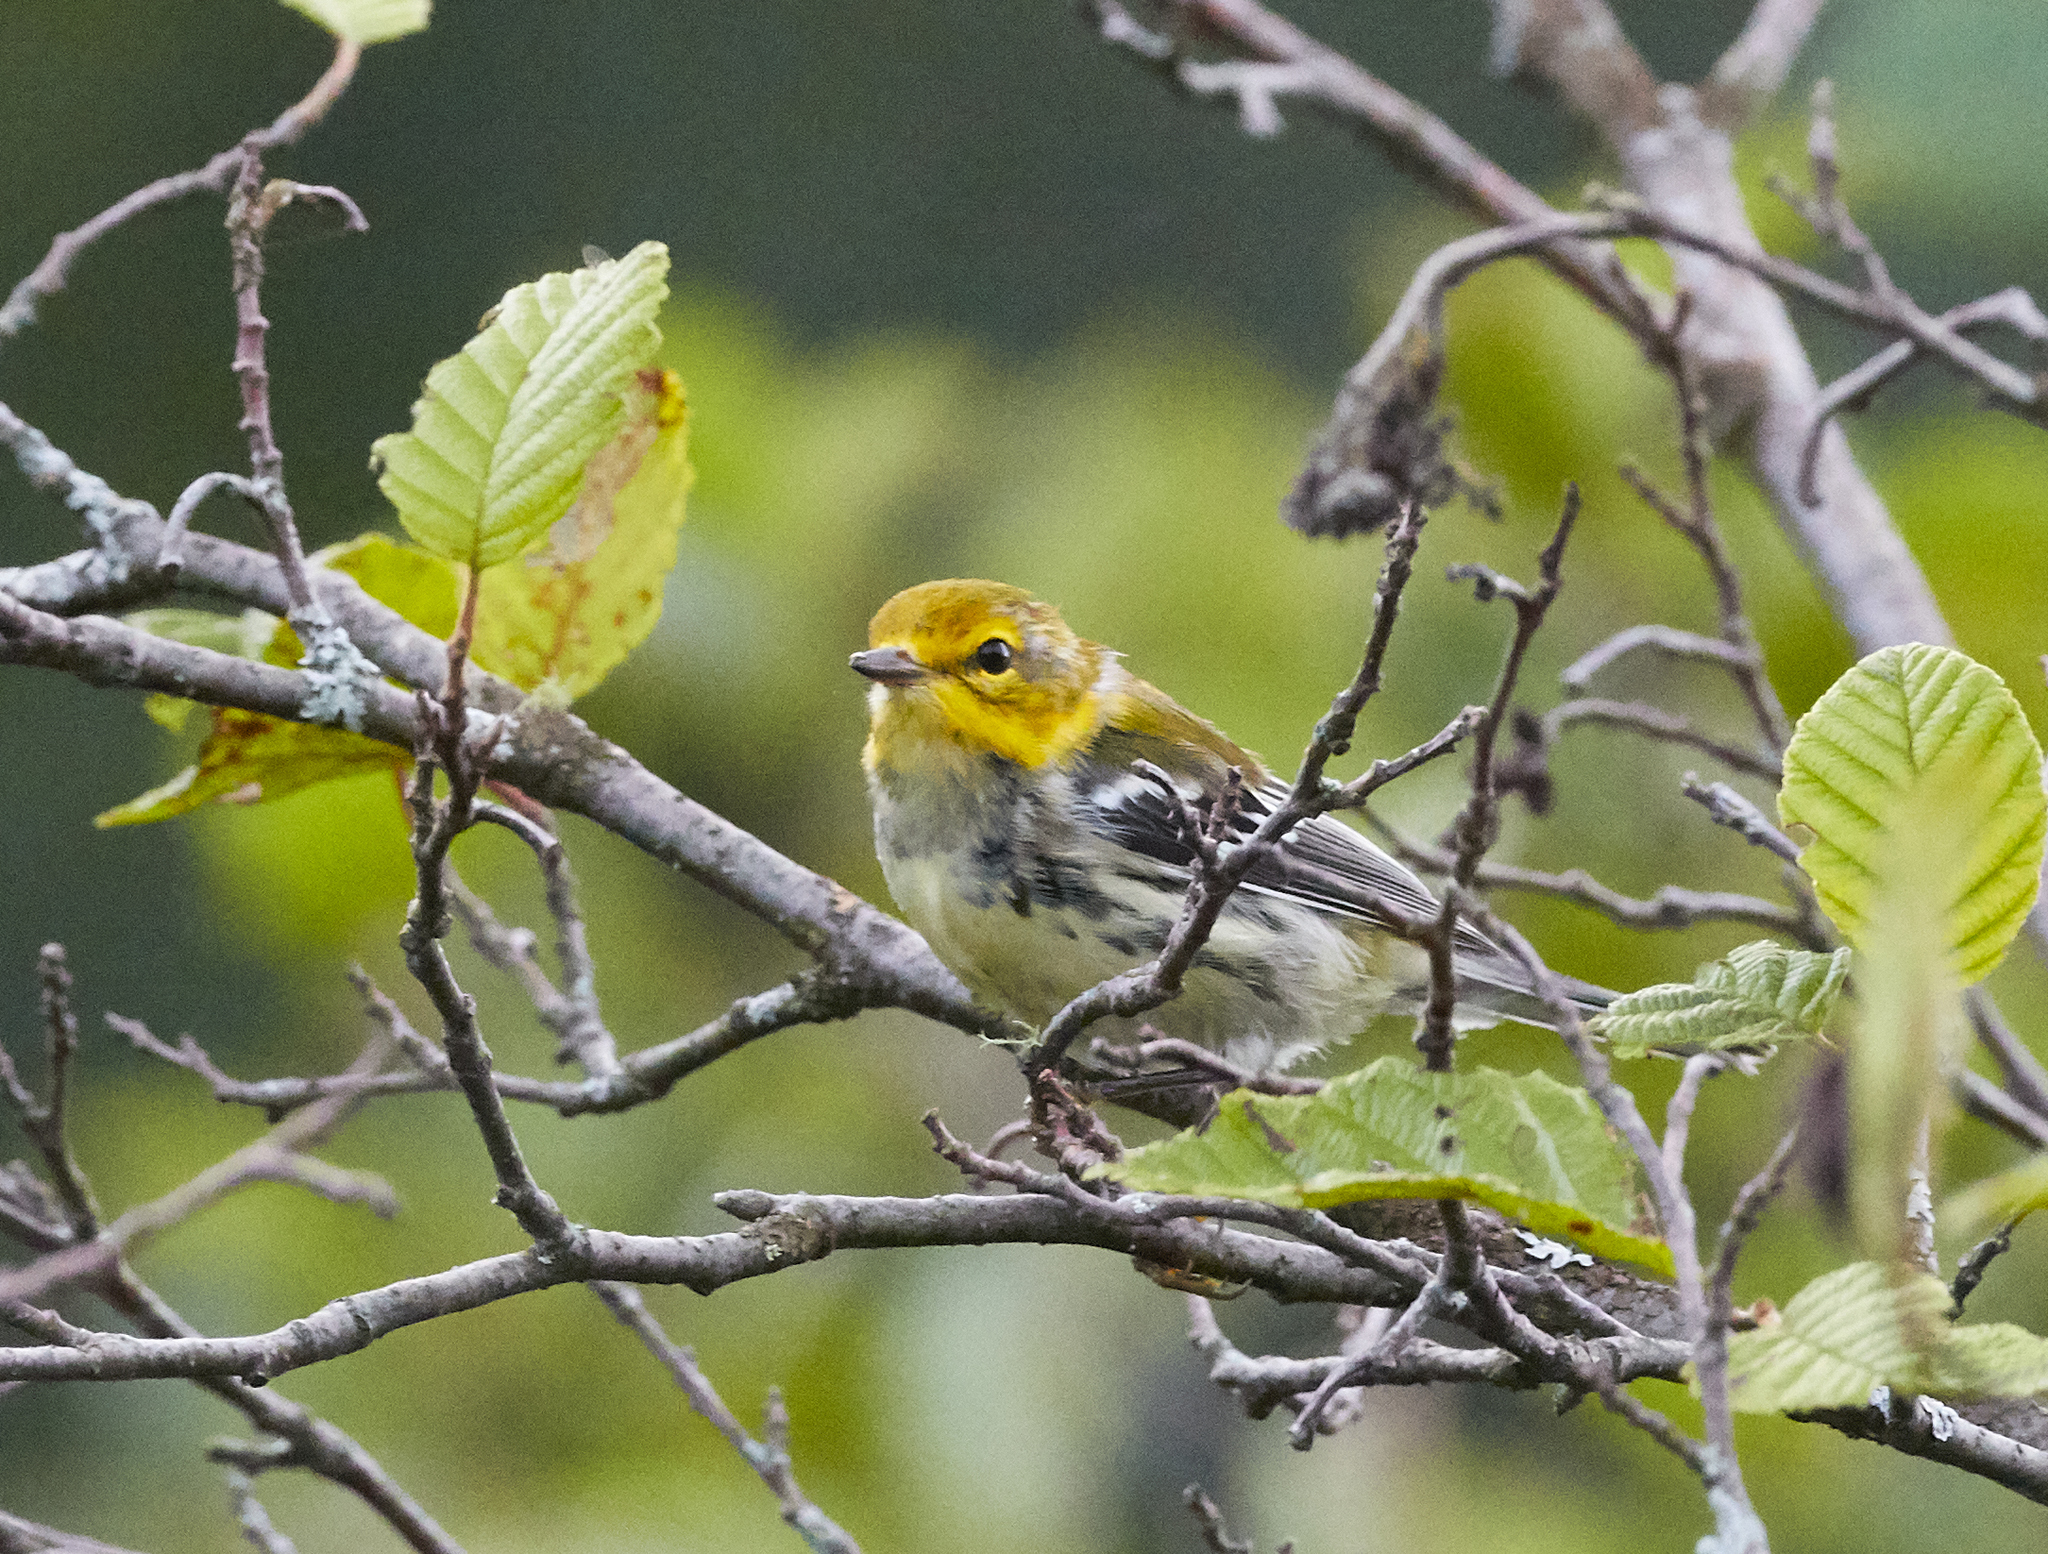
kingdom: Animalia
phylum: Chordata
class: Aves
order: Passeriformes
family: Parulidae
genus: Setophaga
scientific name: Setophaga virens
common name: Black-throated green warbler
